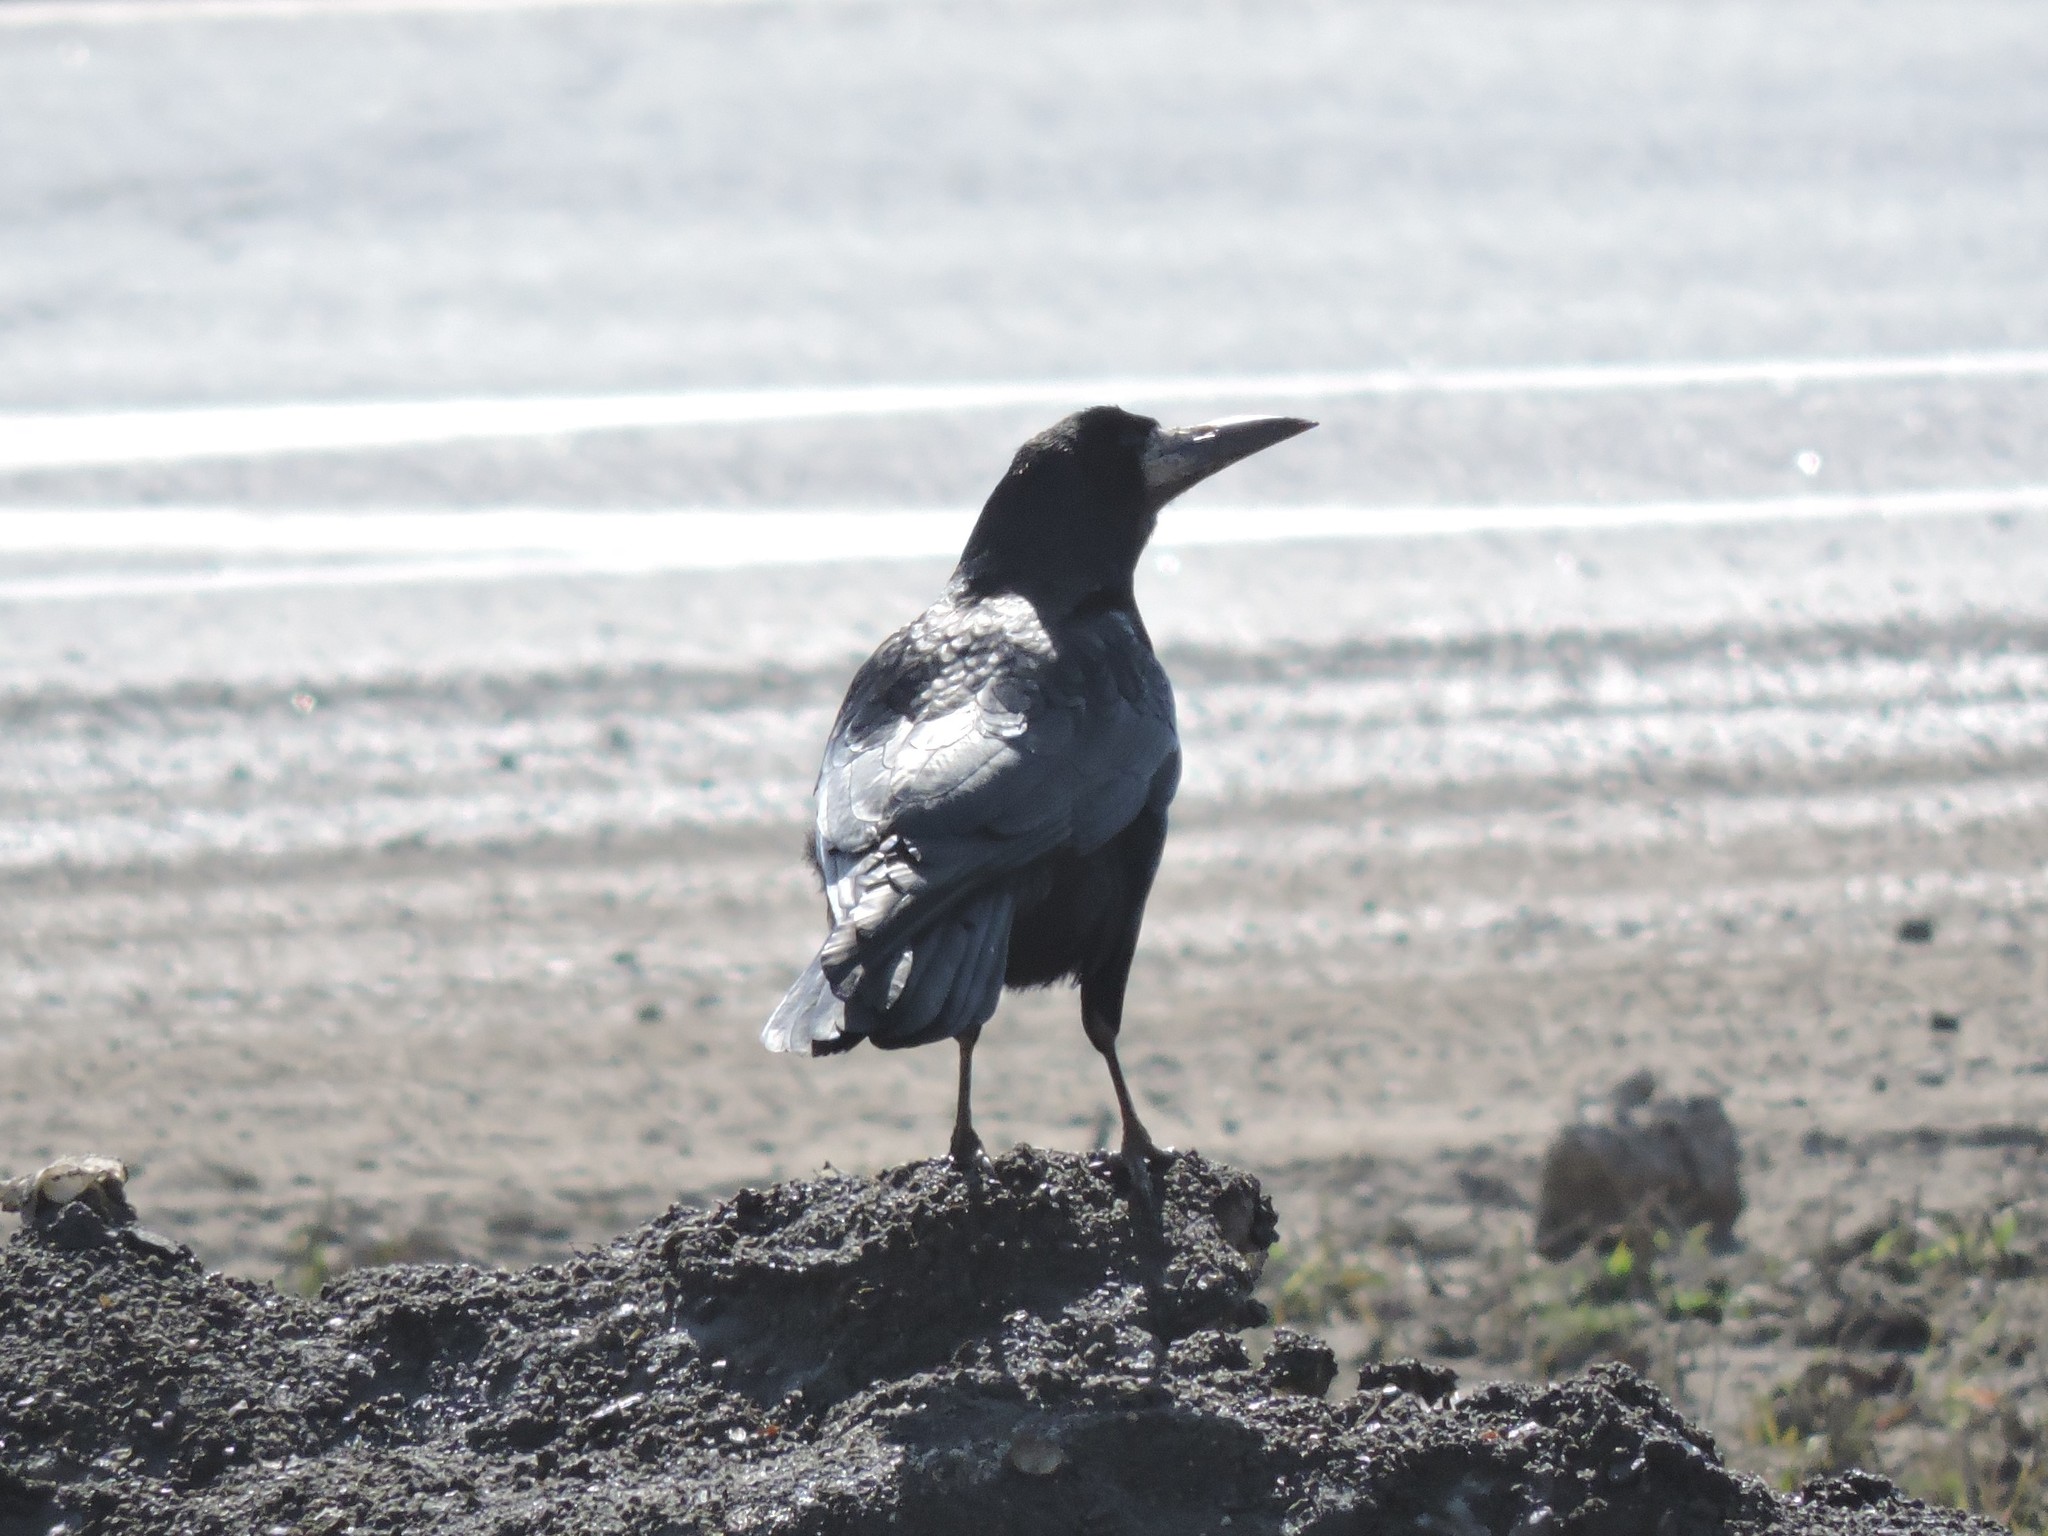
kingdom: Animalia
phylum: Chordata
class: Aves
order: Passeriformes
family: Corvidae
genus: Corvus
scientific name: Corvus frugilegus
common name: Rook
